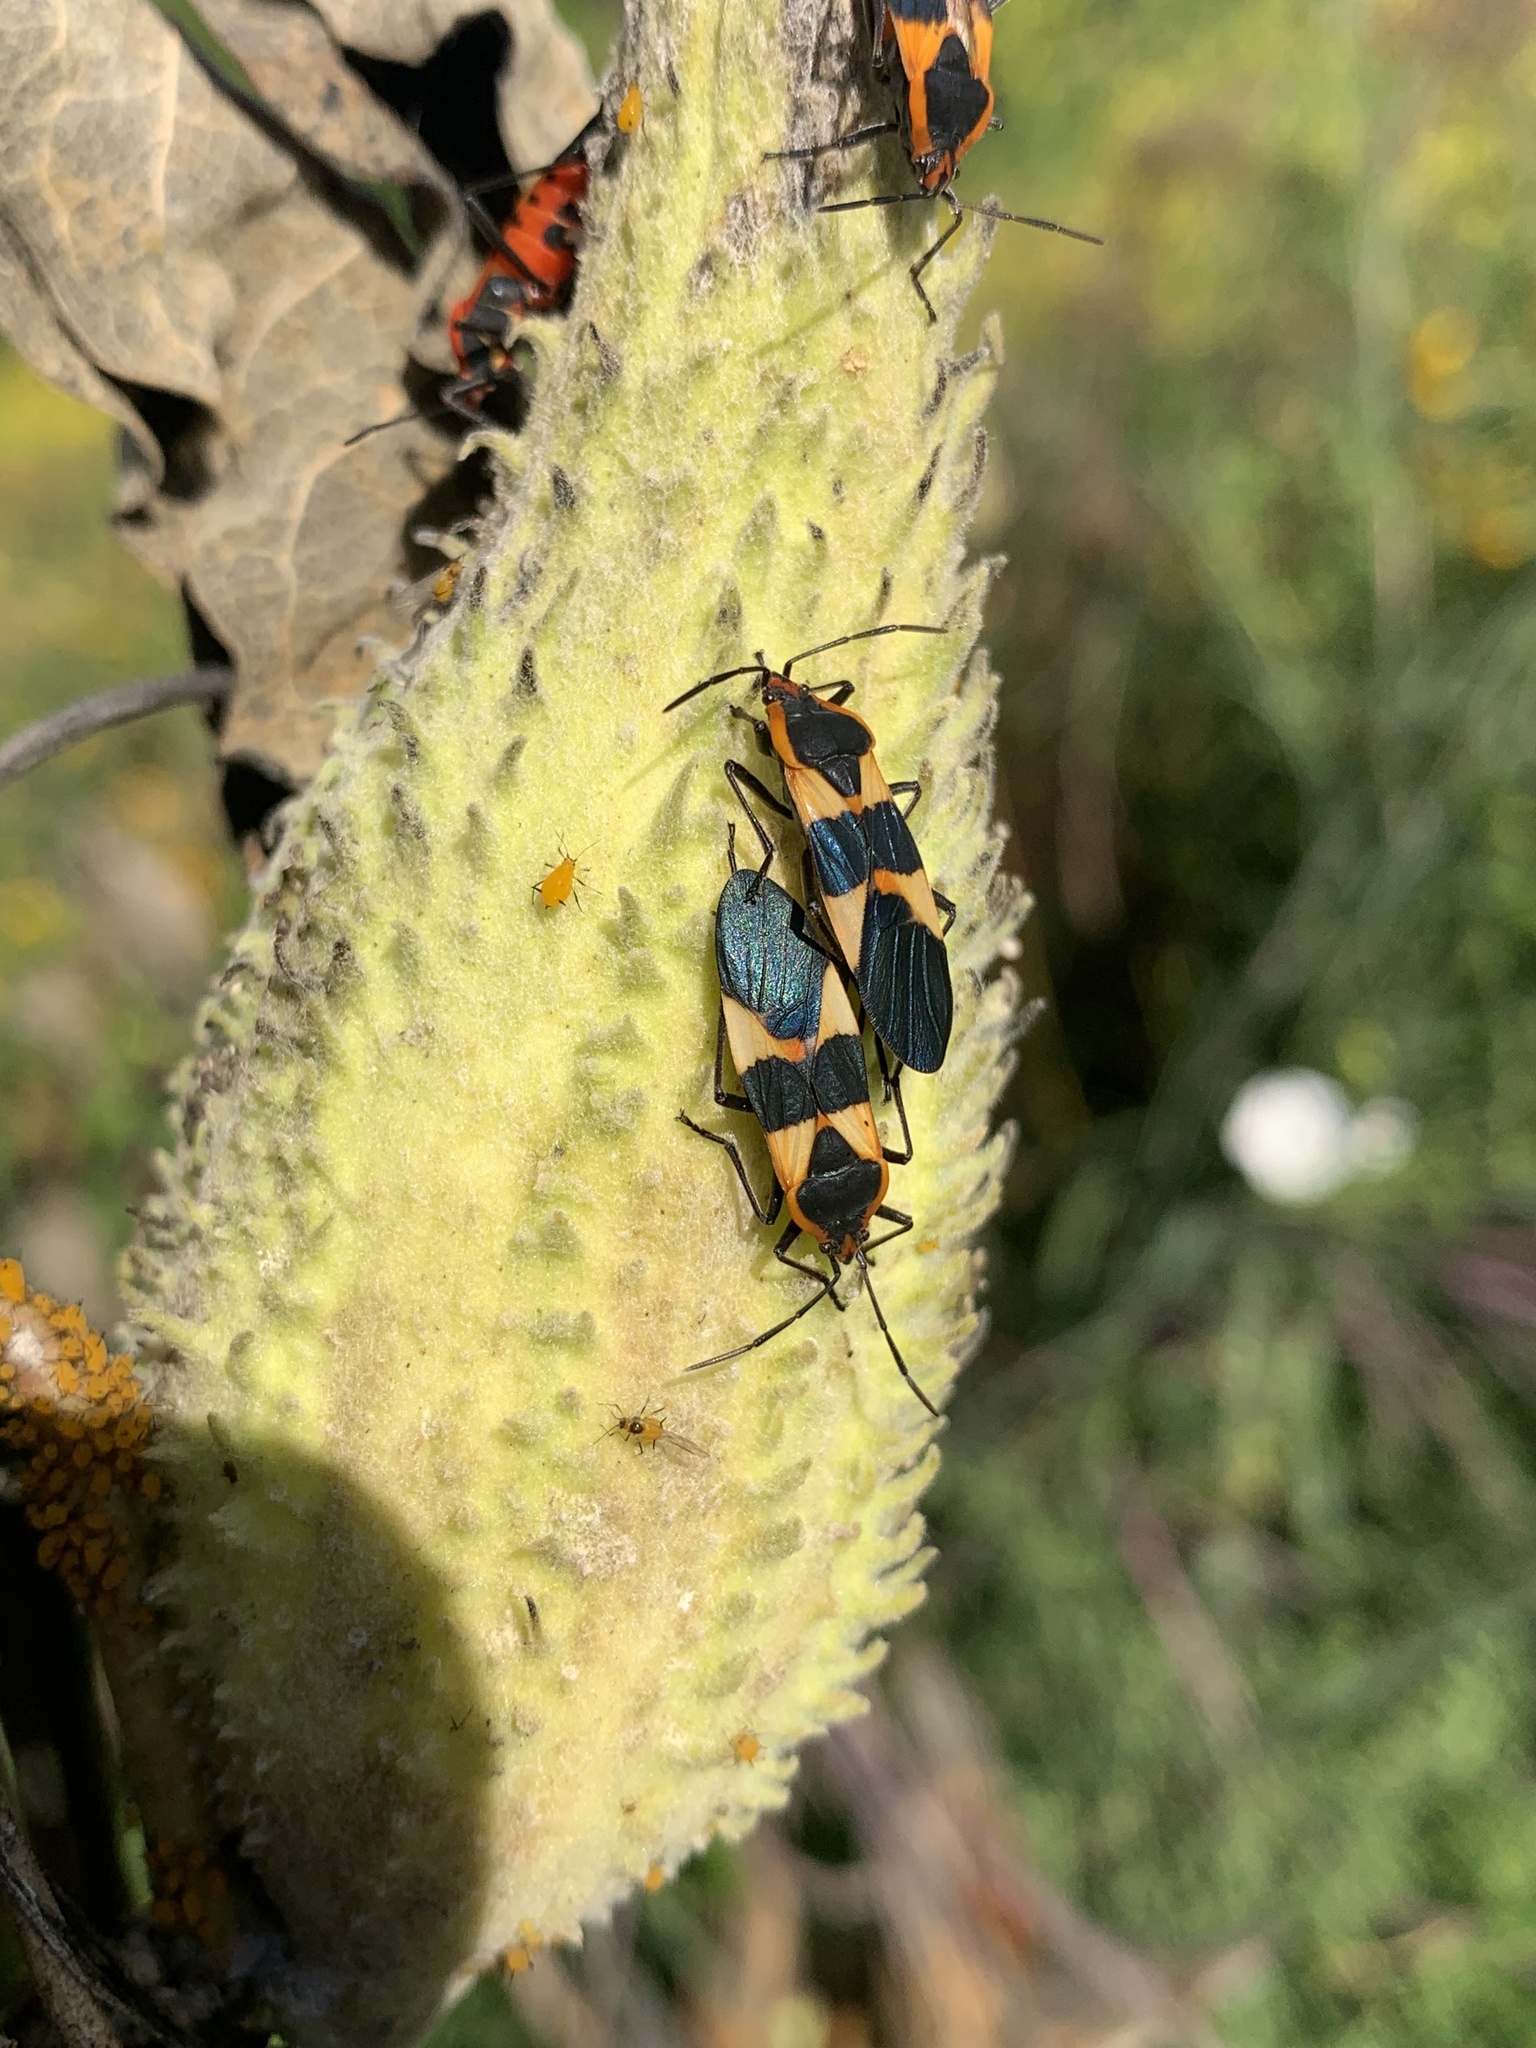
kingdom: Animalia
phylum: Arthropoda
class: Insecta
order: Hemiptera
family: Lygaeidae
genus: Oncopeltus
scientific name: Oncopeltus fasciatus
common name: Large milkweed bug
